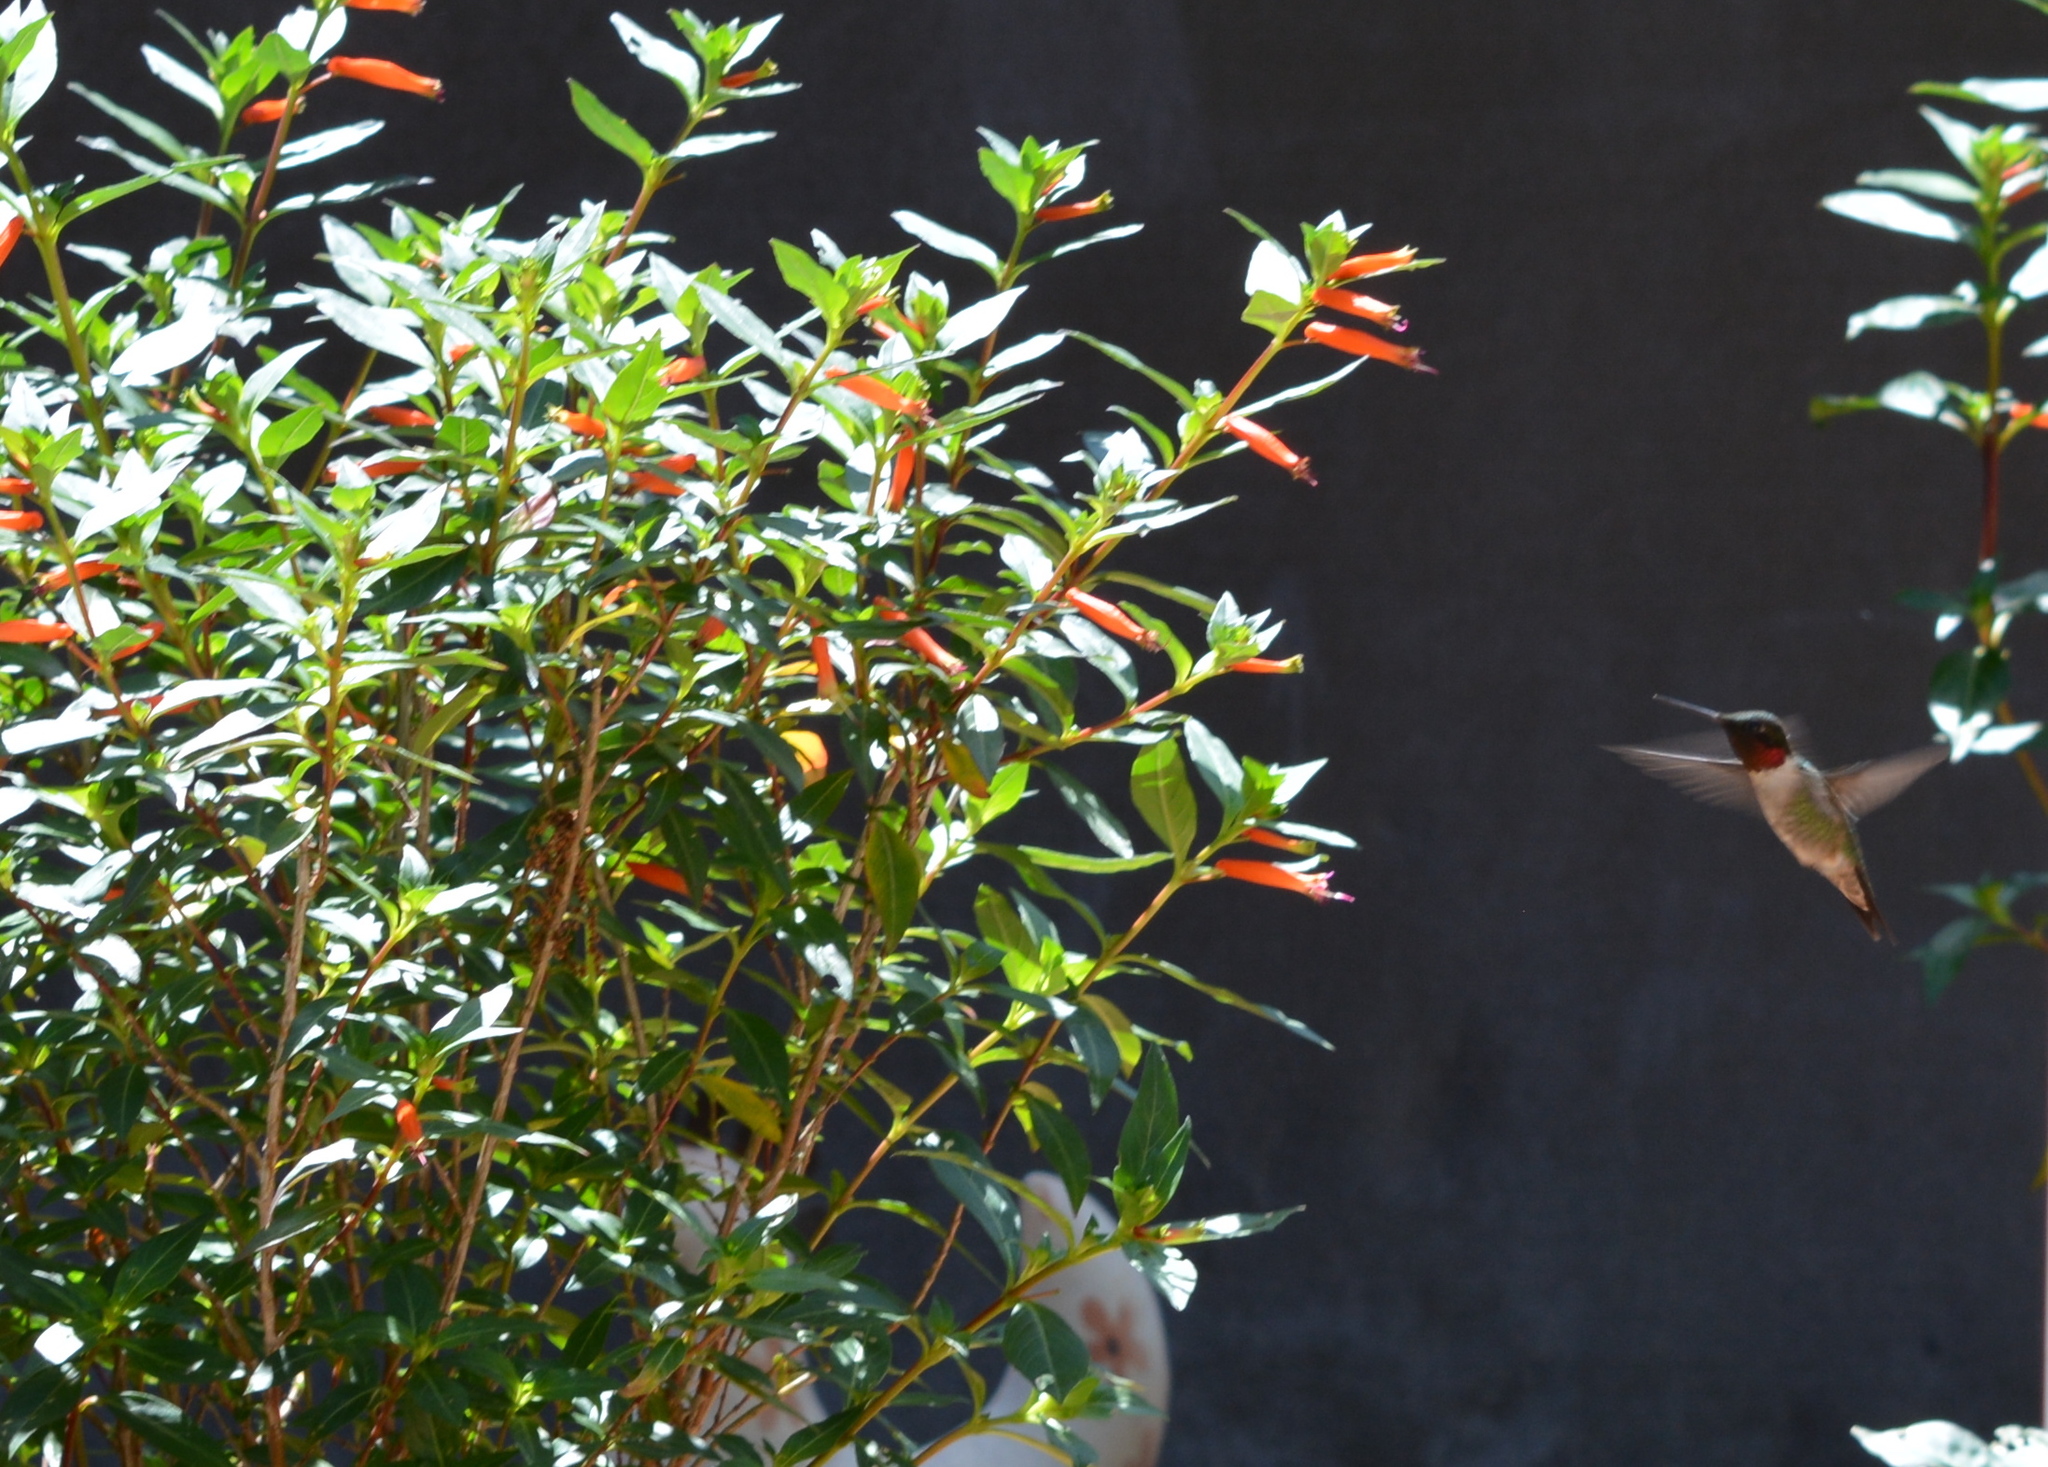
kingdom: Animalia
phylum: Chordata
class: Aves
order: Apodiformes
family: Trochilidae
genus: Archilochus
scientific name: Archilochus colubris
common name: Ruby-throated hummingbird
